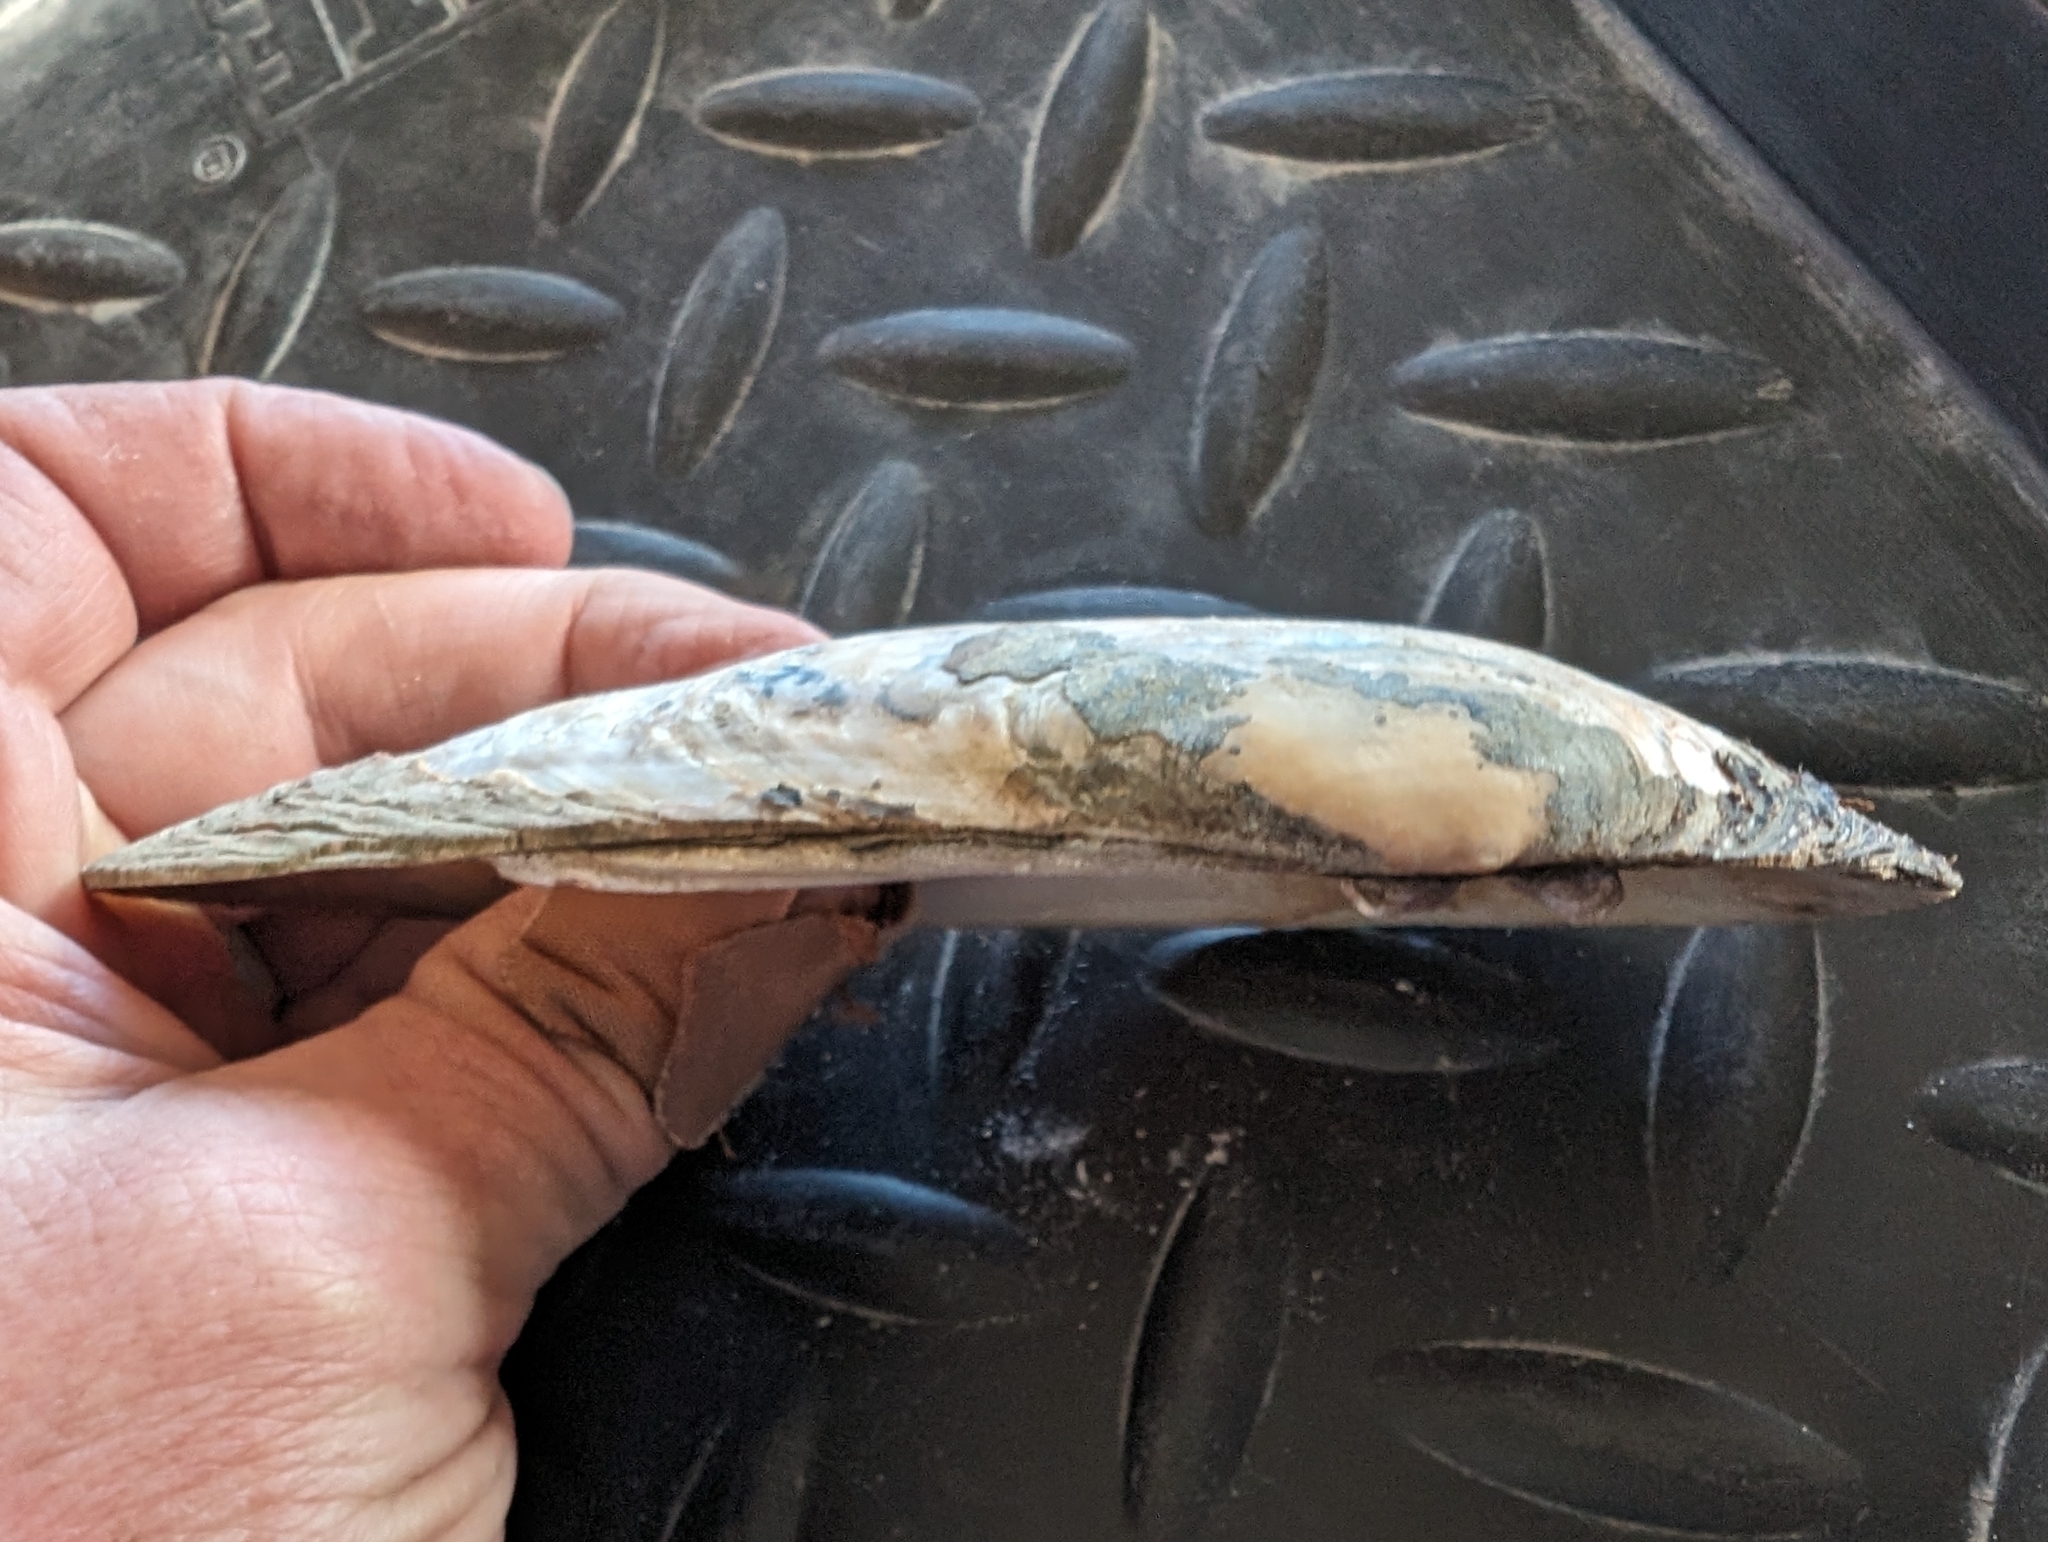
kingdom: Animalia
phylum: Mollusca
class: Bivalvia
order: Unionida
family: Unionidae
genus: Ligumia
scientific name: Ligumia recta
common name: Black sandshell
